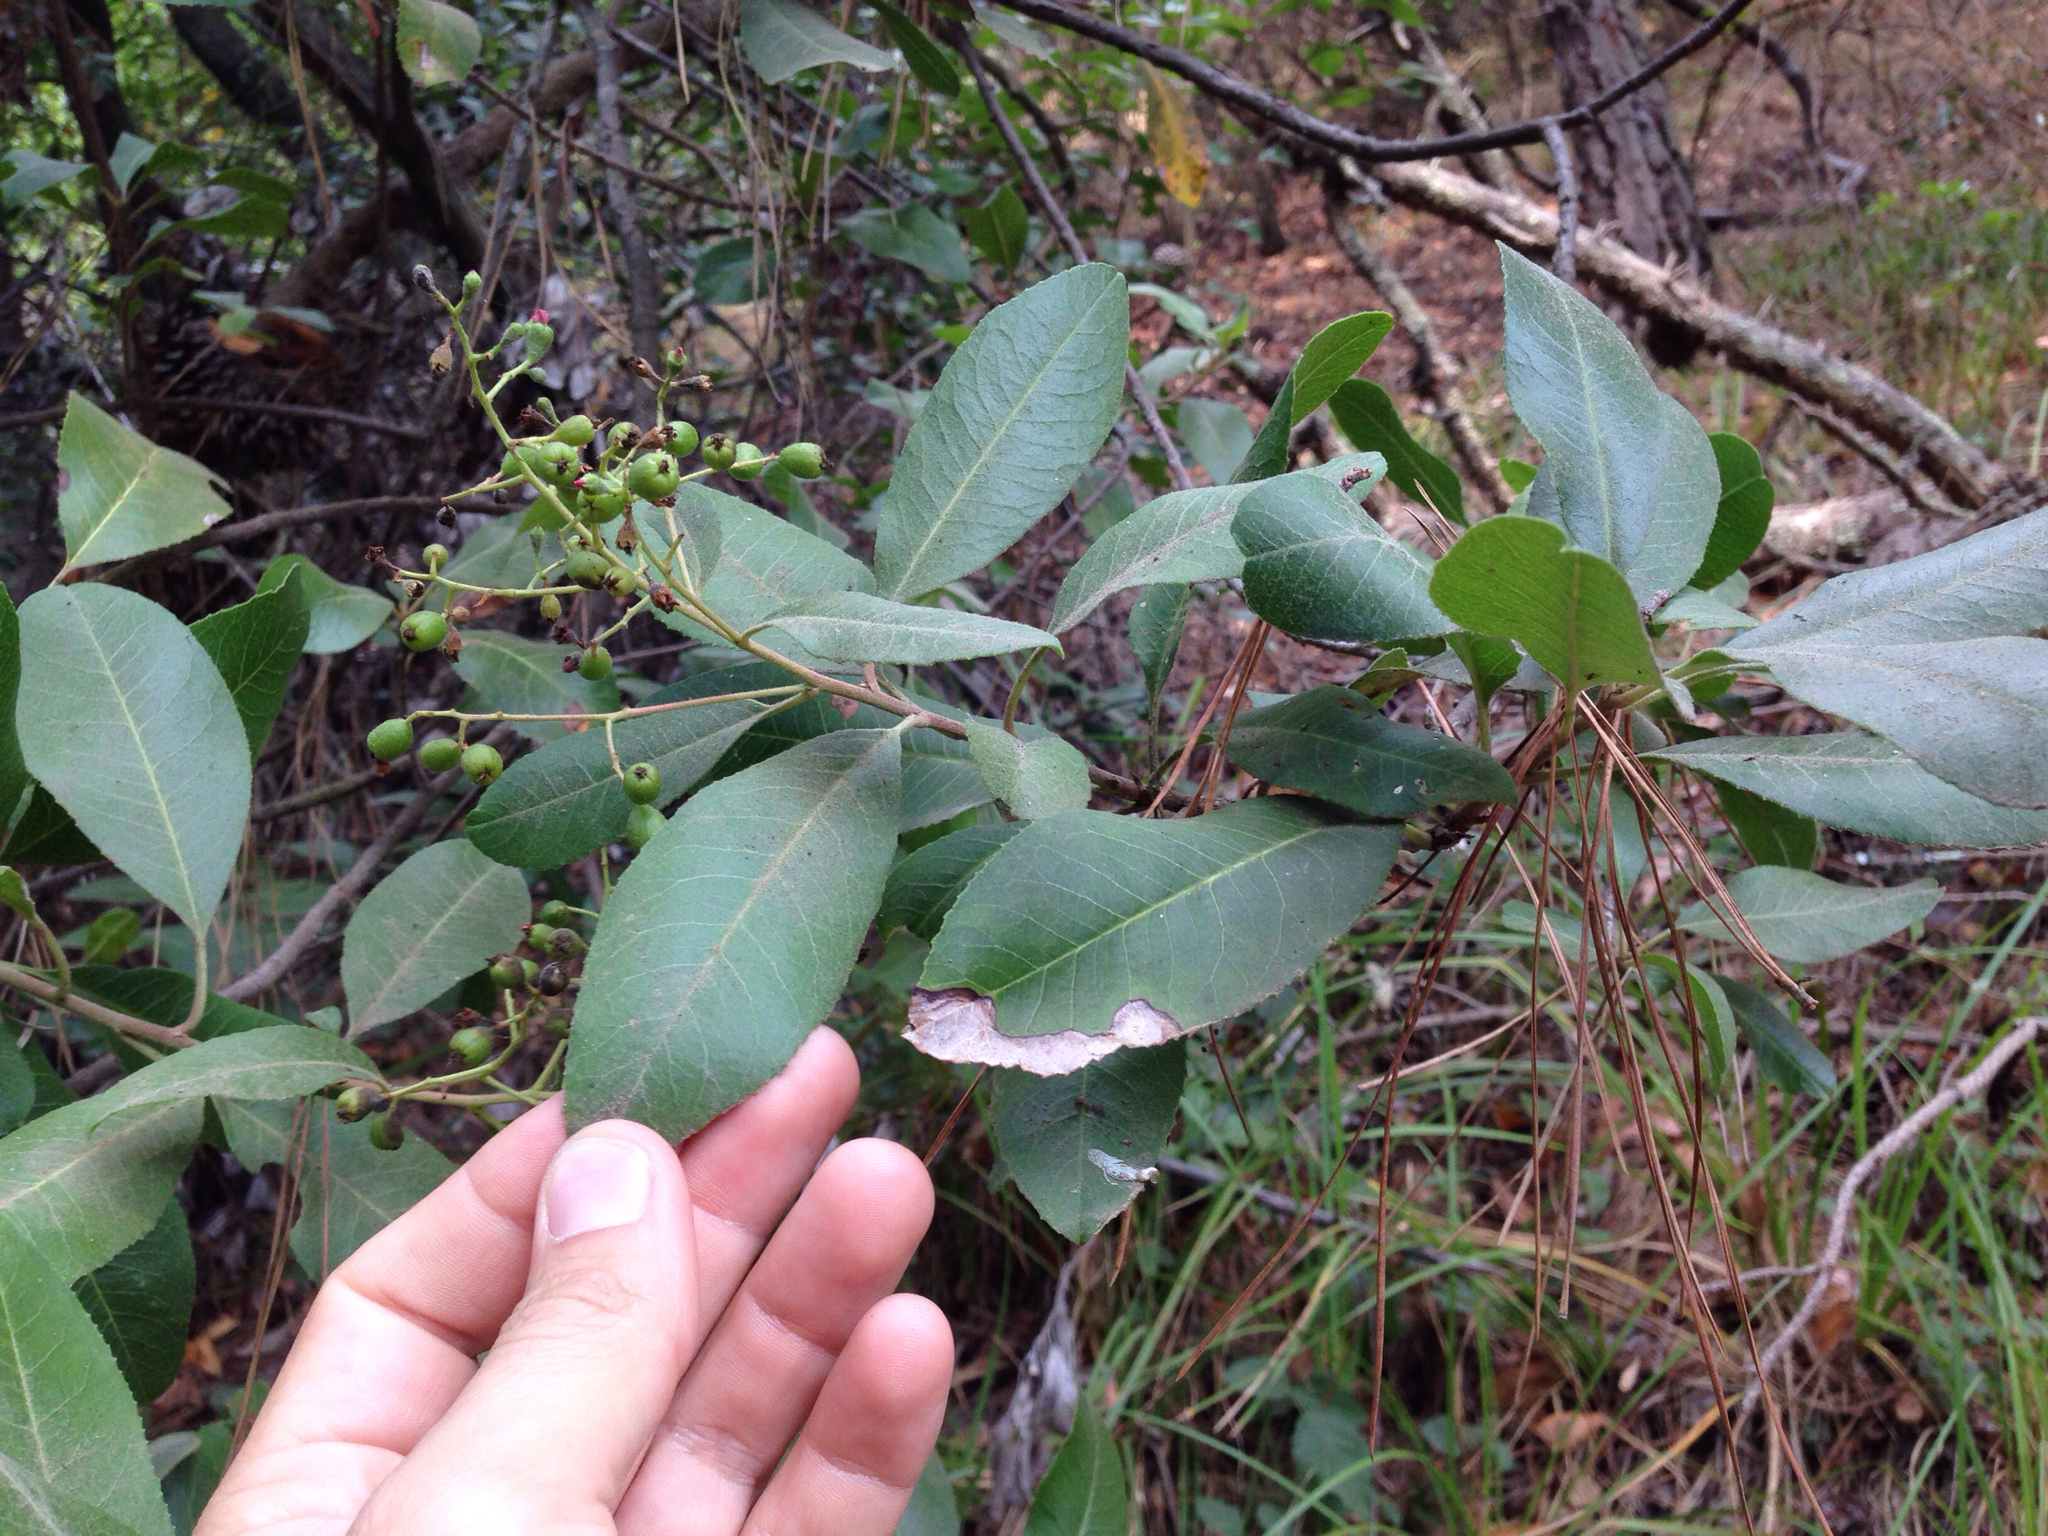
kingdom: Plantae
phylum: Tracheophyta
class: Magnoliopsida
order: Rosales
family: Rosaceae
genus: Heteromeles
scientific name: Heteromeles arbutifolia
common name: California-holly
